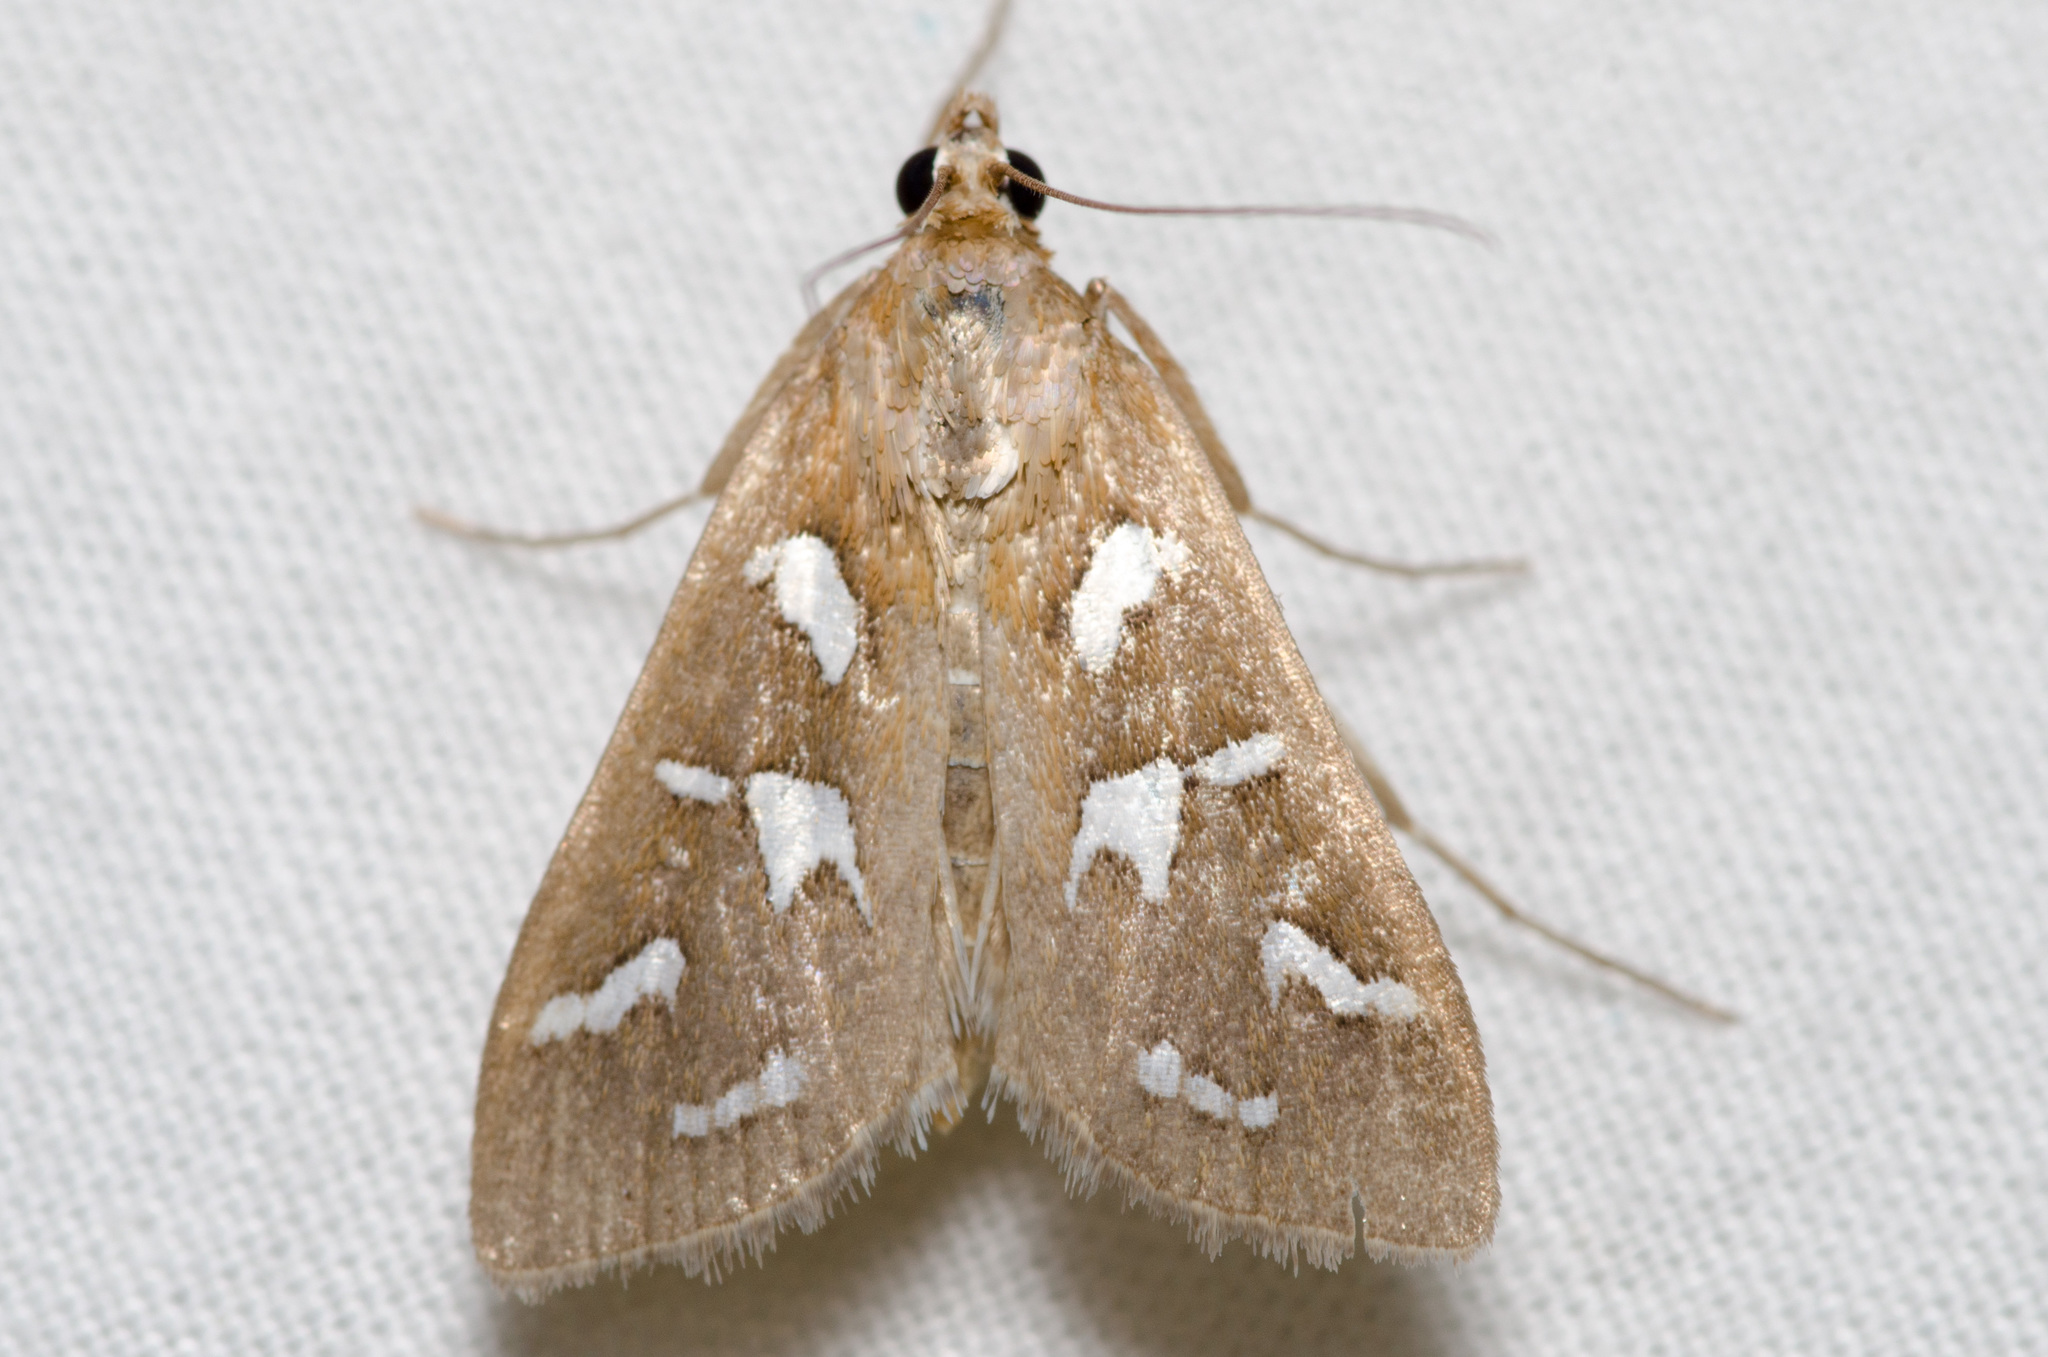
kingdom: Animalia
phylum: Arthropoda
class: Insecta
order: Lepidoptera
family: Crambidae
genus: Diastictis
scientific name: Diastictis fracturalis
